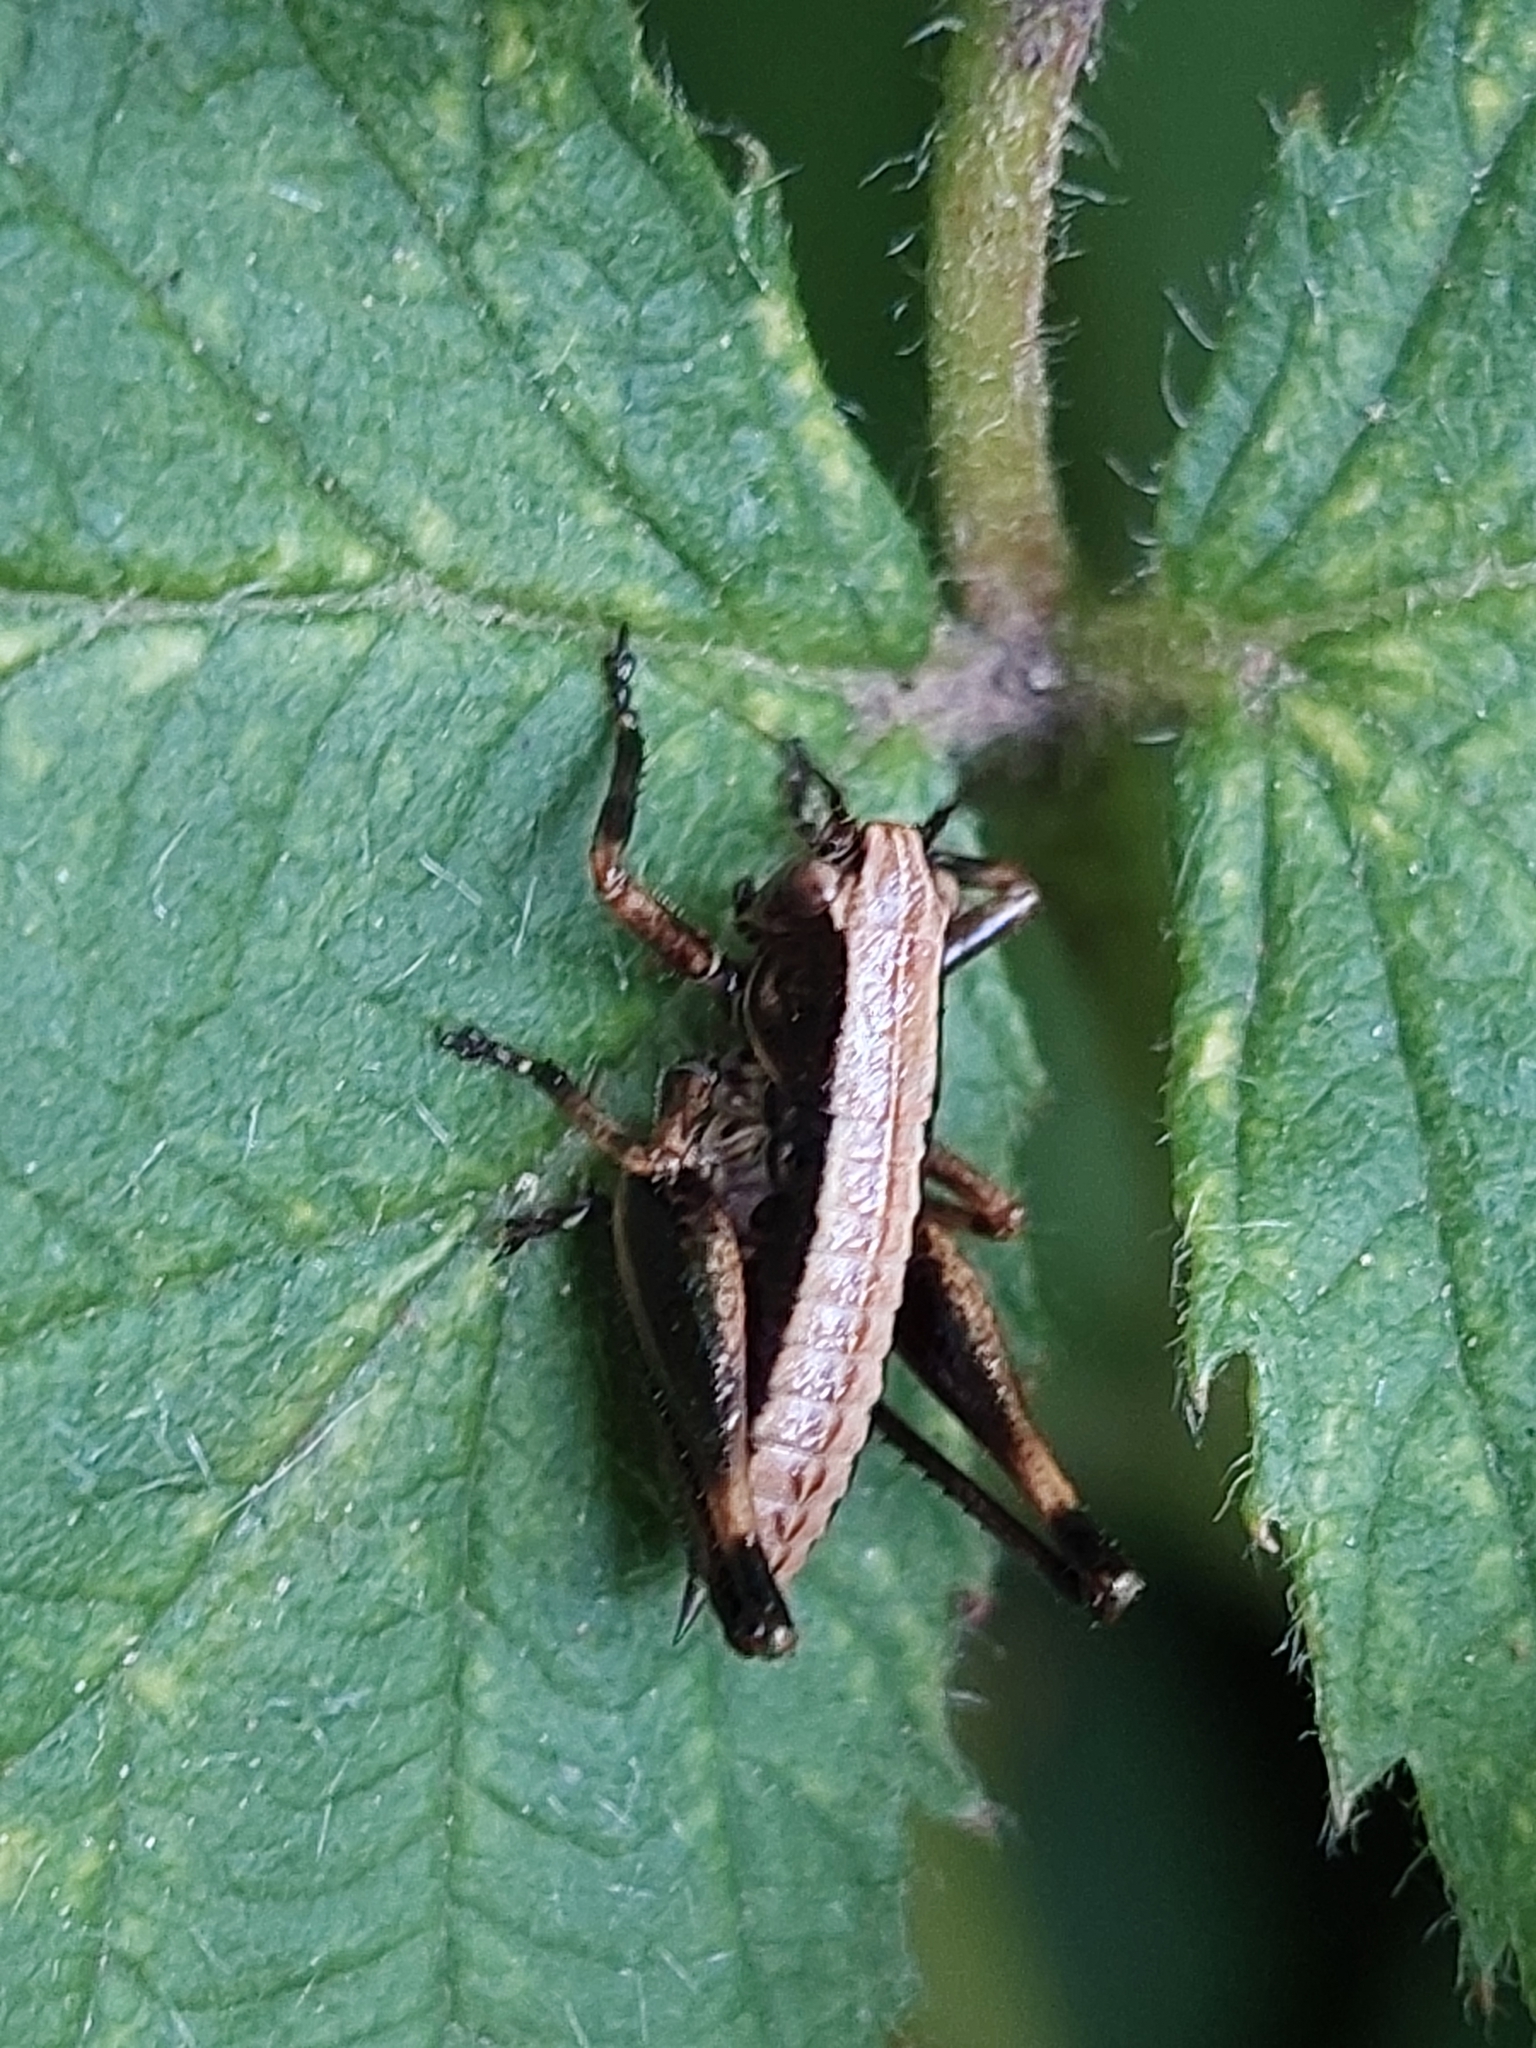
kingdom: Animalia
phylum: Arthropoda
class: Insecta
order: Orthoptera
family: Tettigoniidae
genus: Pholidoptera
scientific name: Pholidoptera griseoaptera
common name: Dark bush-cricket
